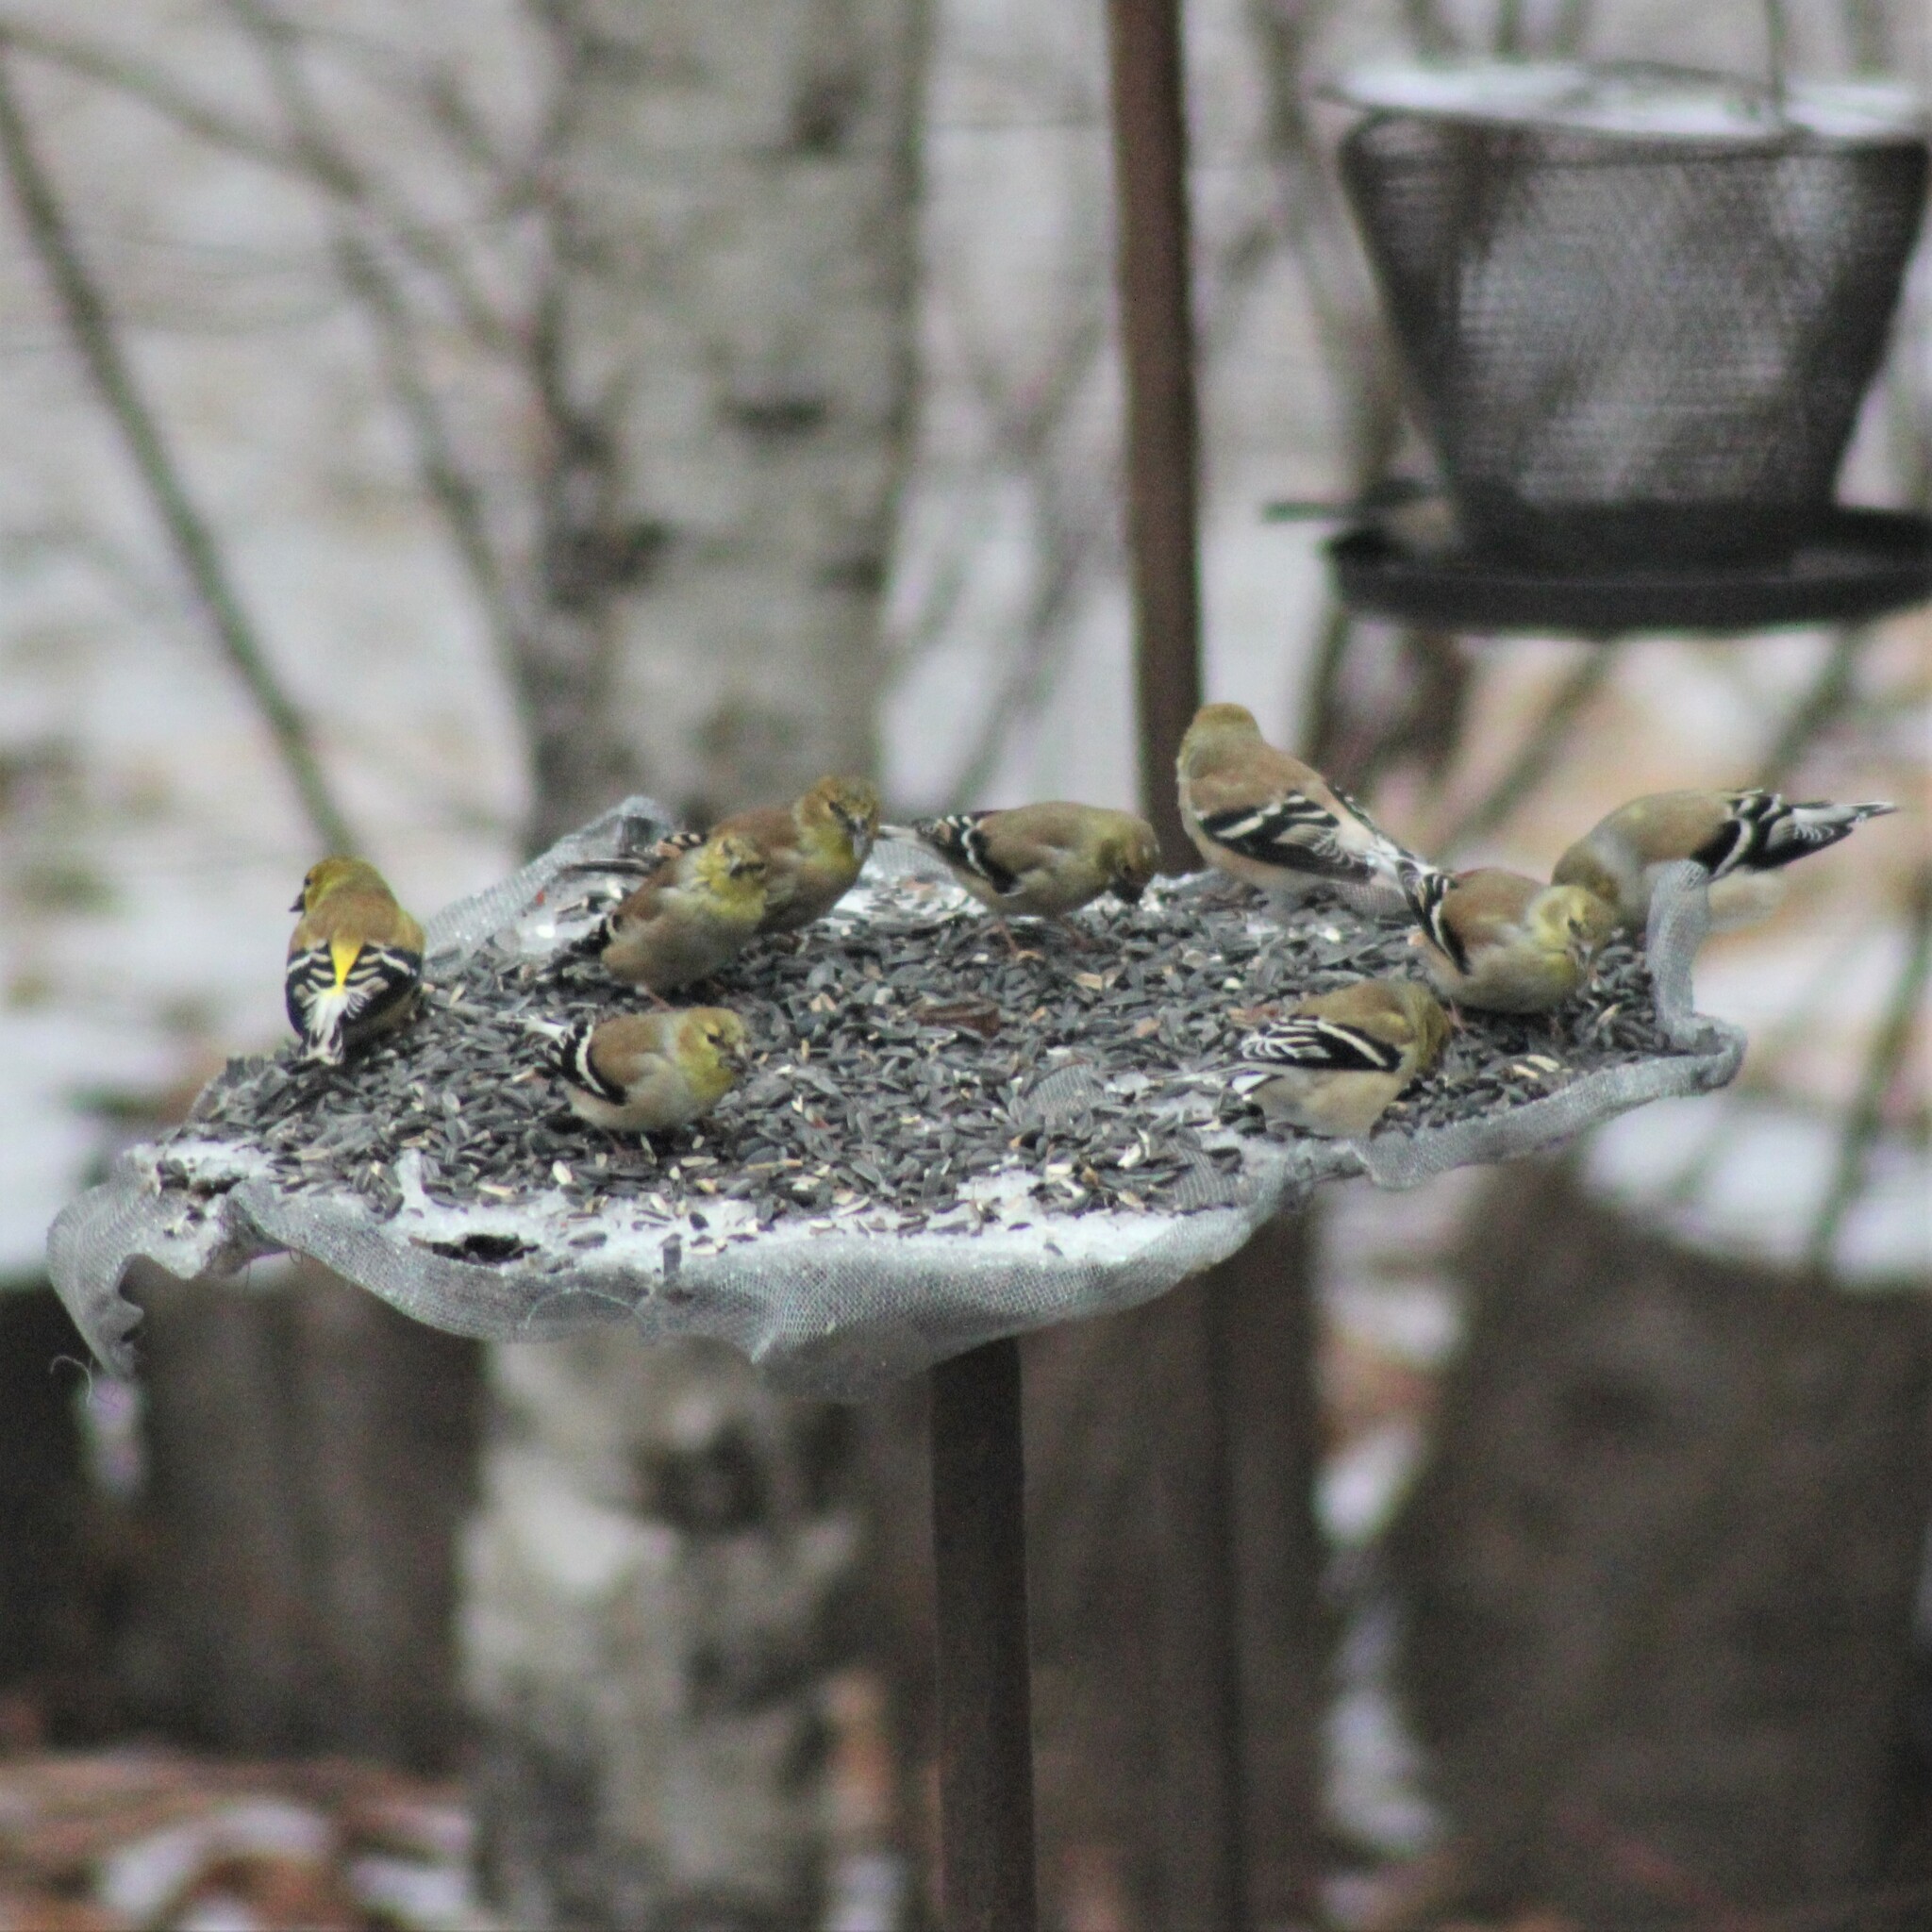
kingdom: Animalia
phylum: Chordata
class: Aves
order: Passeriformes
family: Fringillidae
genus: Spinus
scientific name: Spinus tristis
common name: American goldfinch
